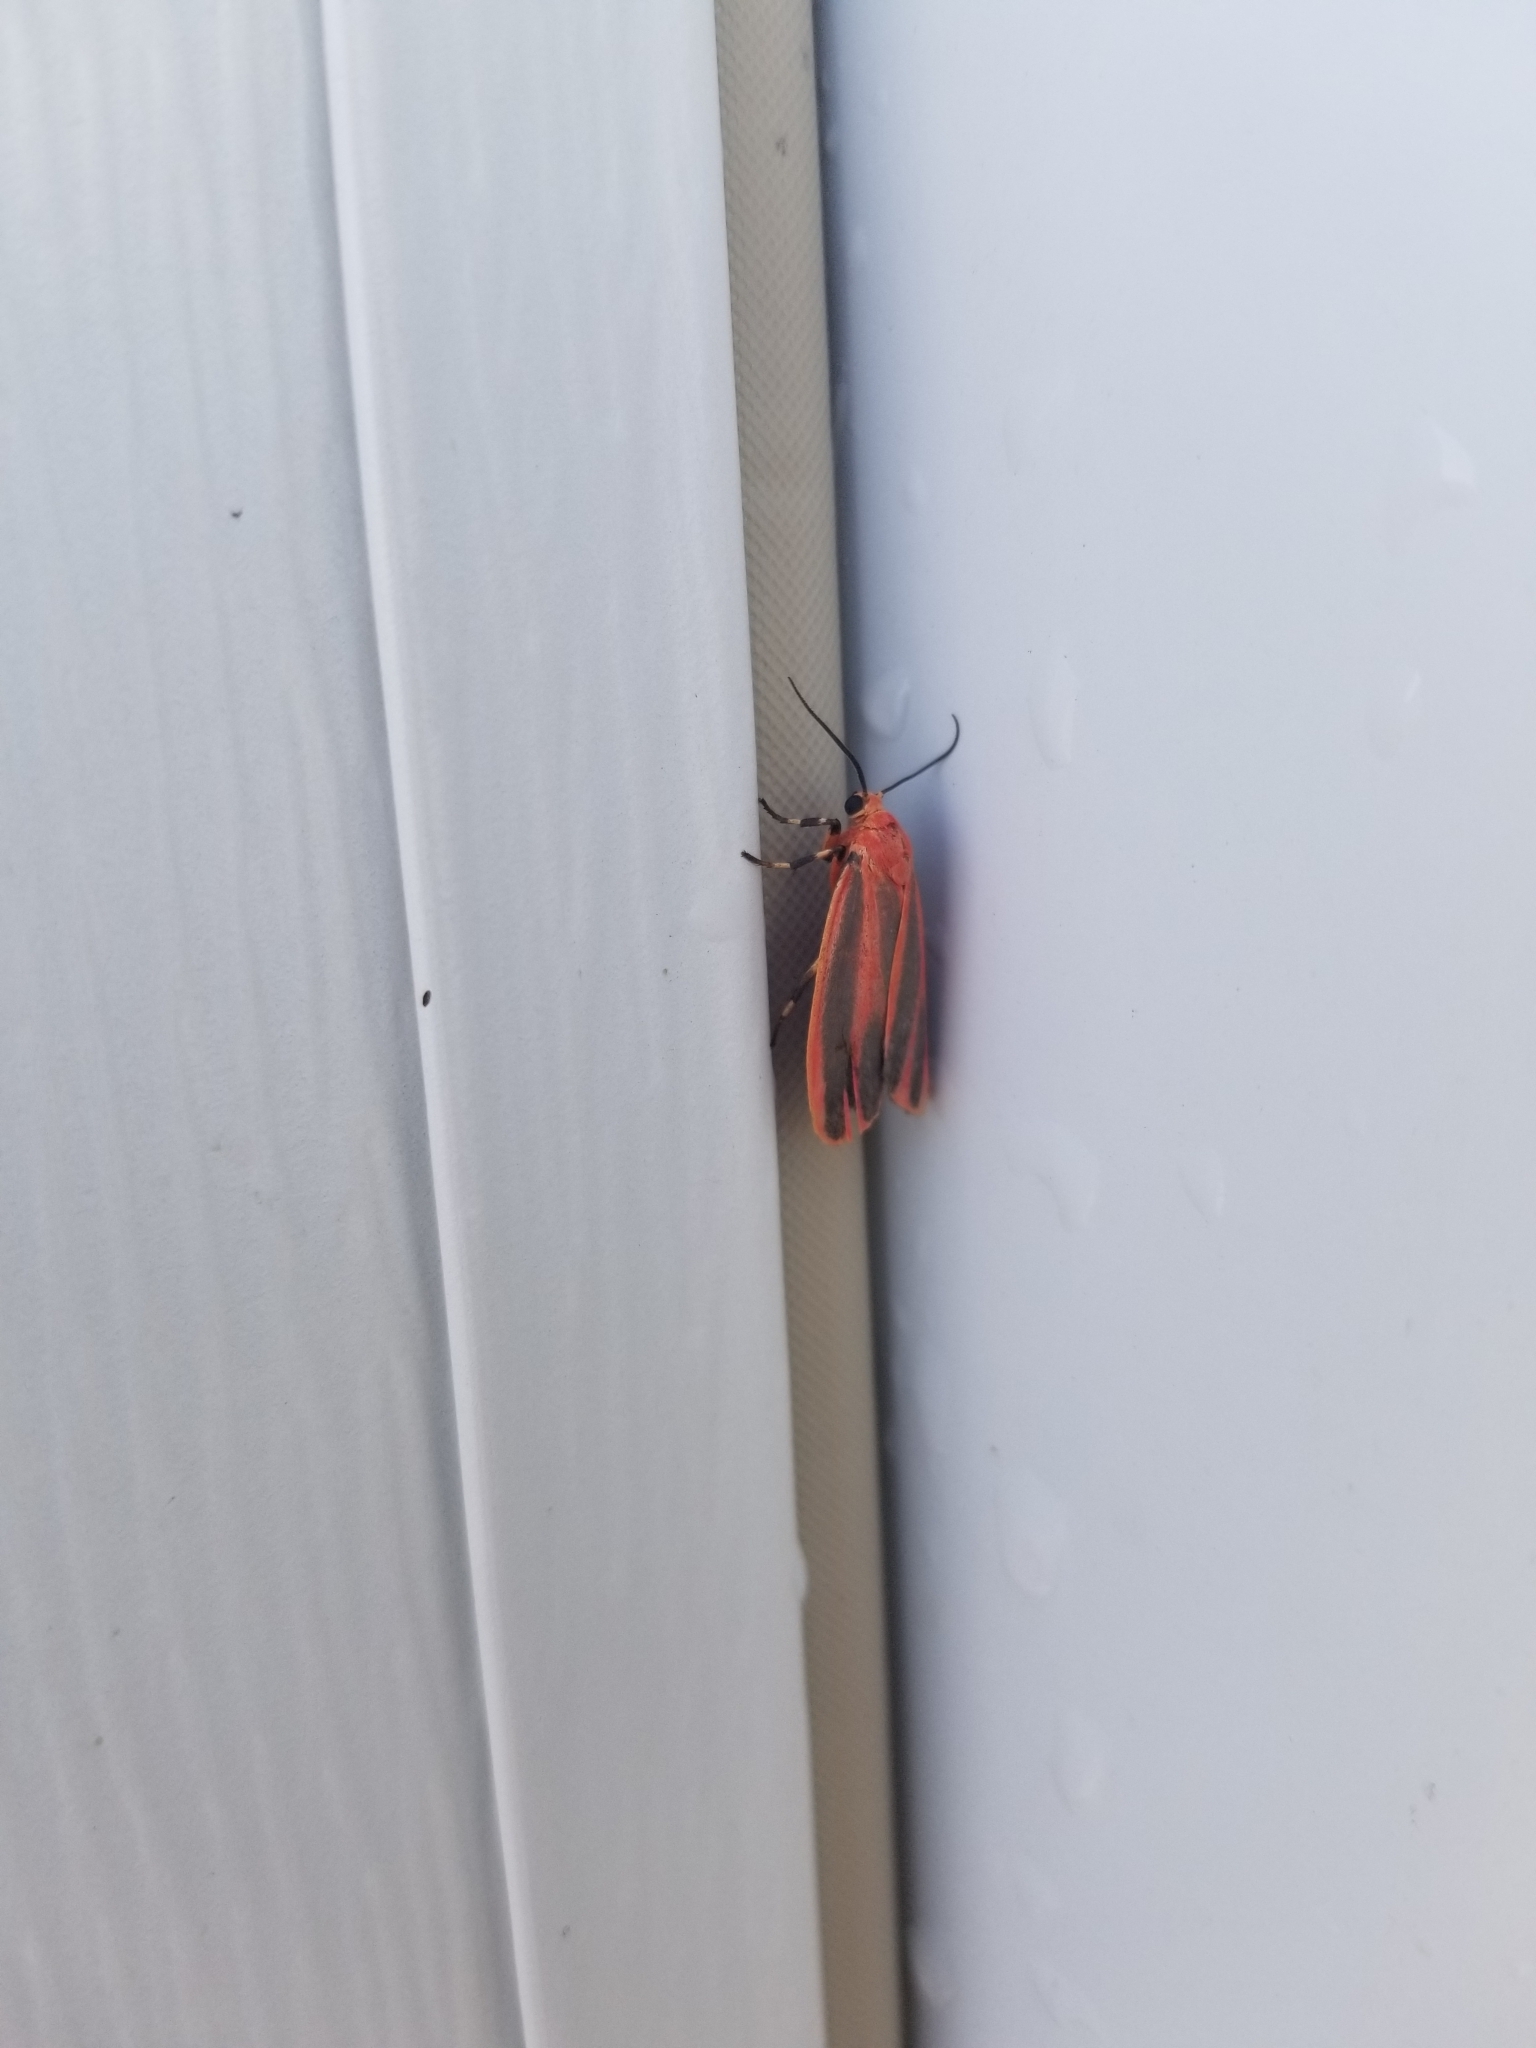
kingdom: Animalia
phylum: Arthropoda
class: Insecta
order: Lepidoptera
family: Erebidae
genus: Hypoprepia
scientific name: Hypoprepia miniata
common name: Scarlet-winged lichen moth
